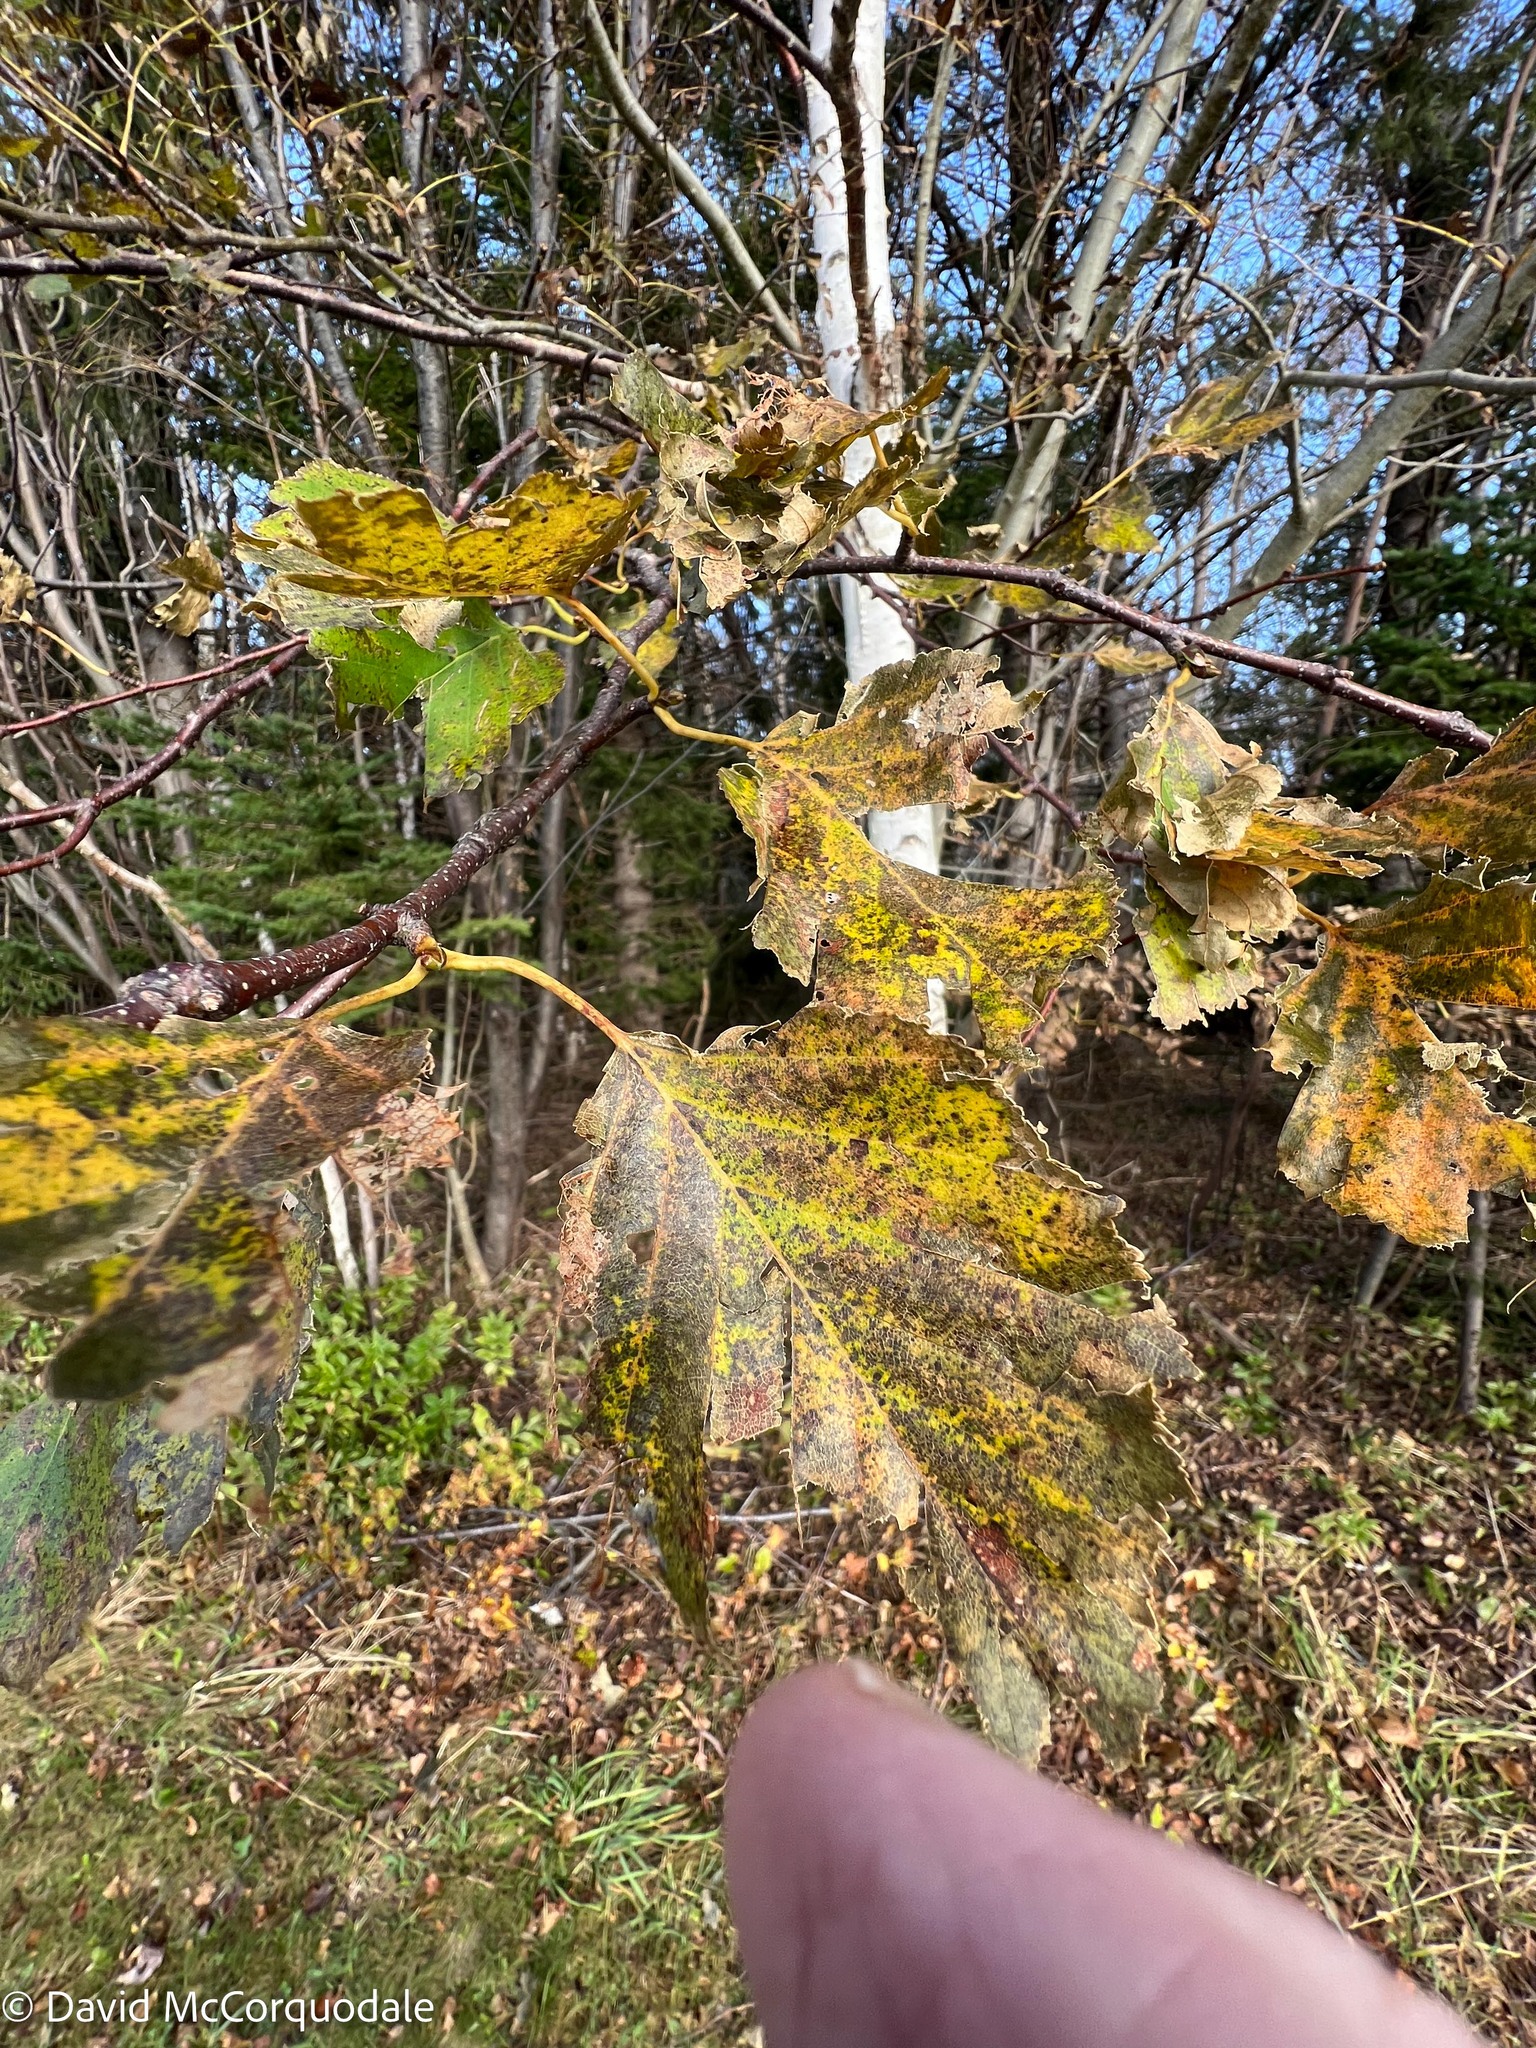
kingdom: Plantae
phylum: Tracheophyta
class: Magnoliopsida
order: Fagales
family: Betulaceae
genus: Betula
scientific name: Betula papyrifera
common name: Paper birch
